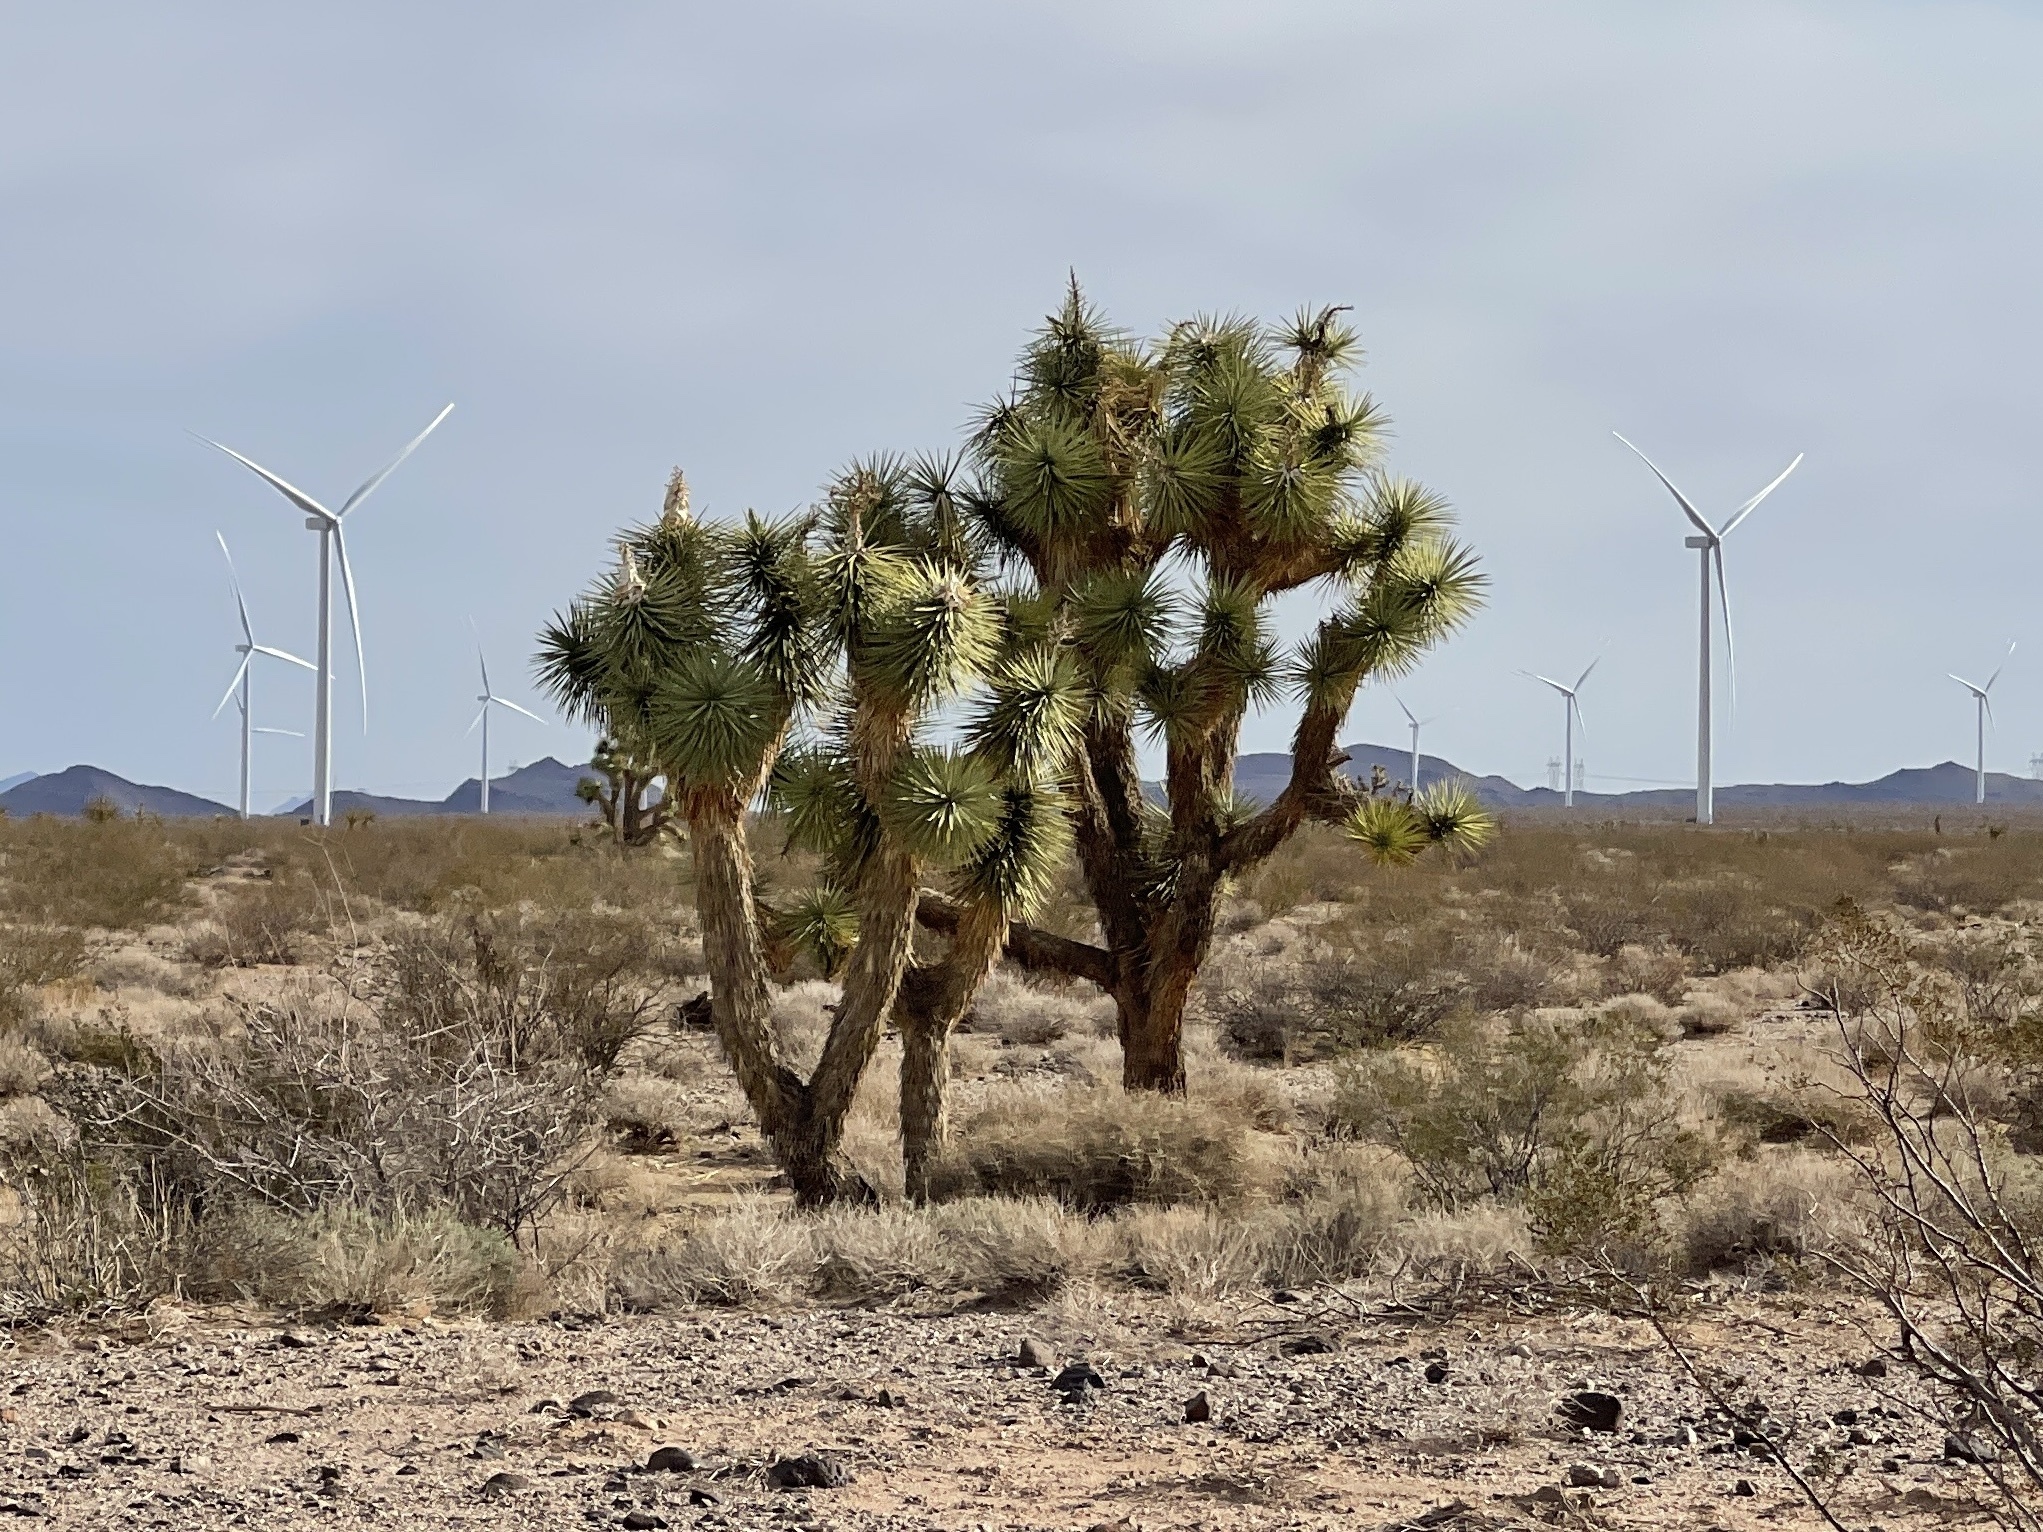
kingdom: Plantae
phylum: Tracheophyta
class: Liliopsida
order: Asparagales
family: Asparagaceae
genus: Yucca
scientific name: Yucca brevifolia
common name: Joshua tree
